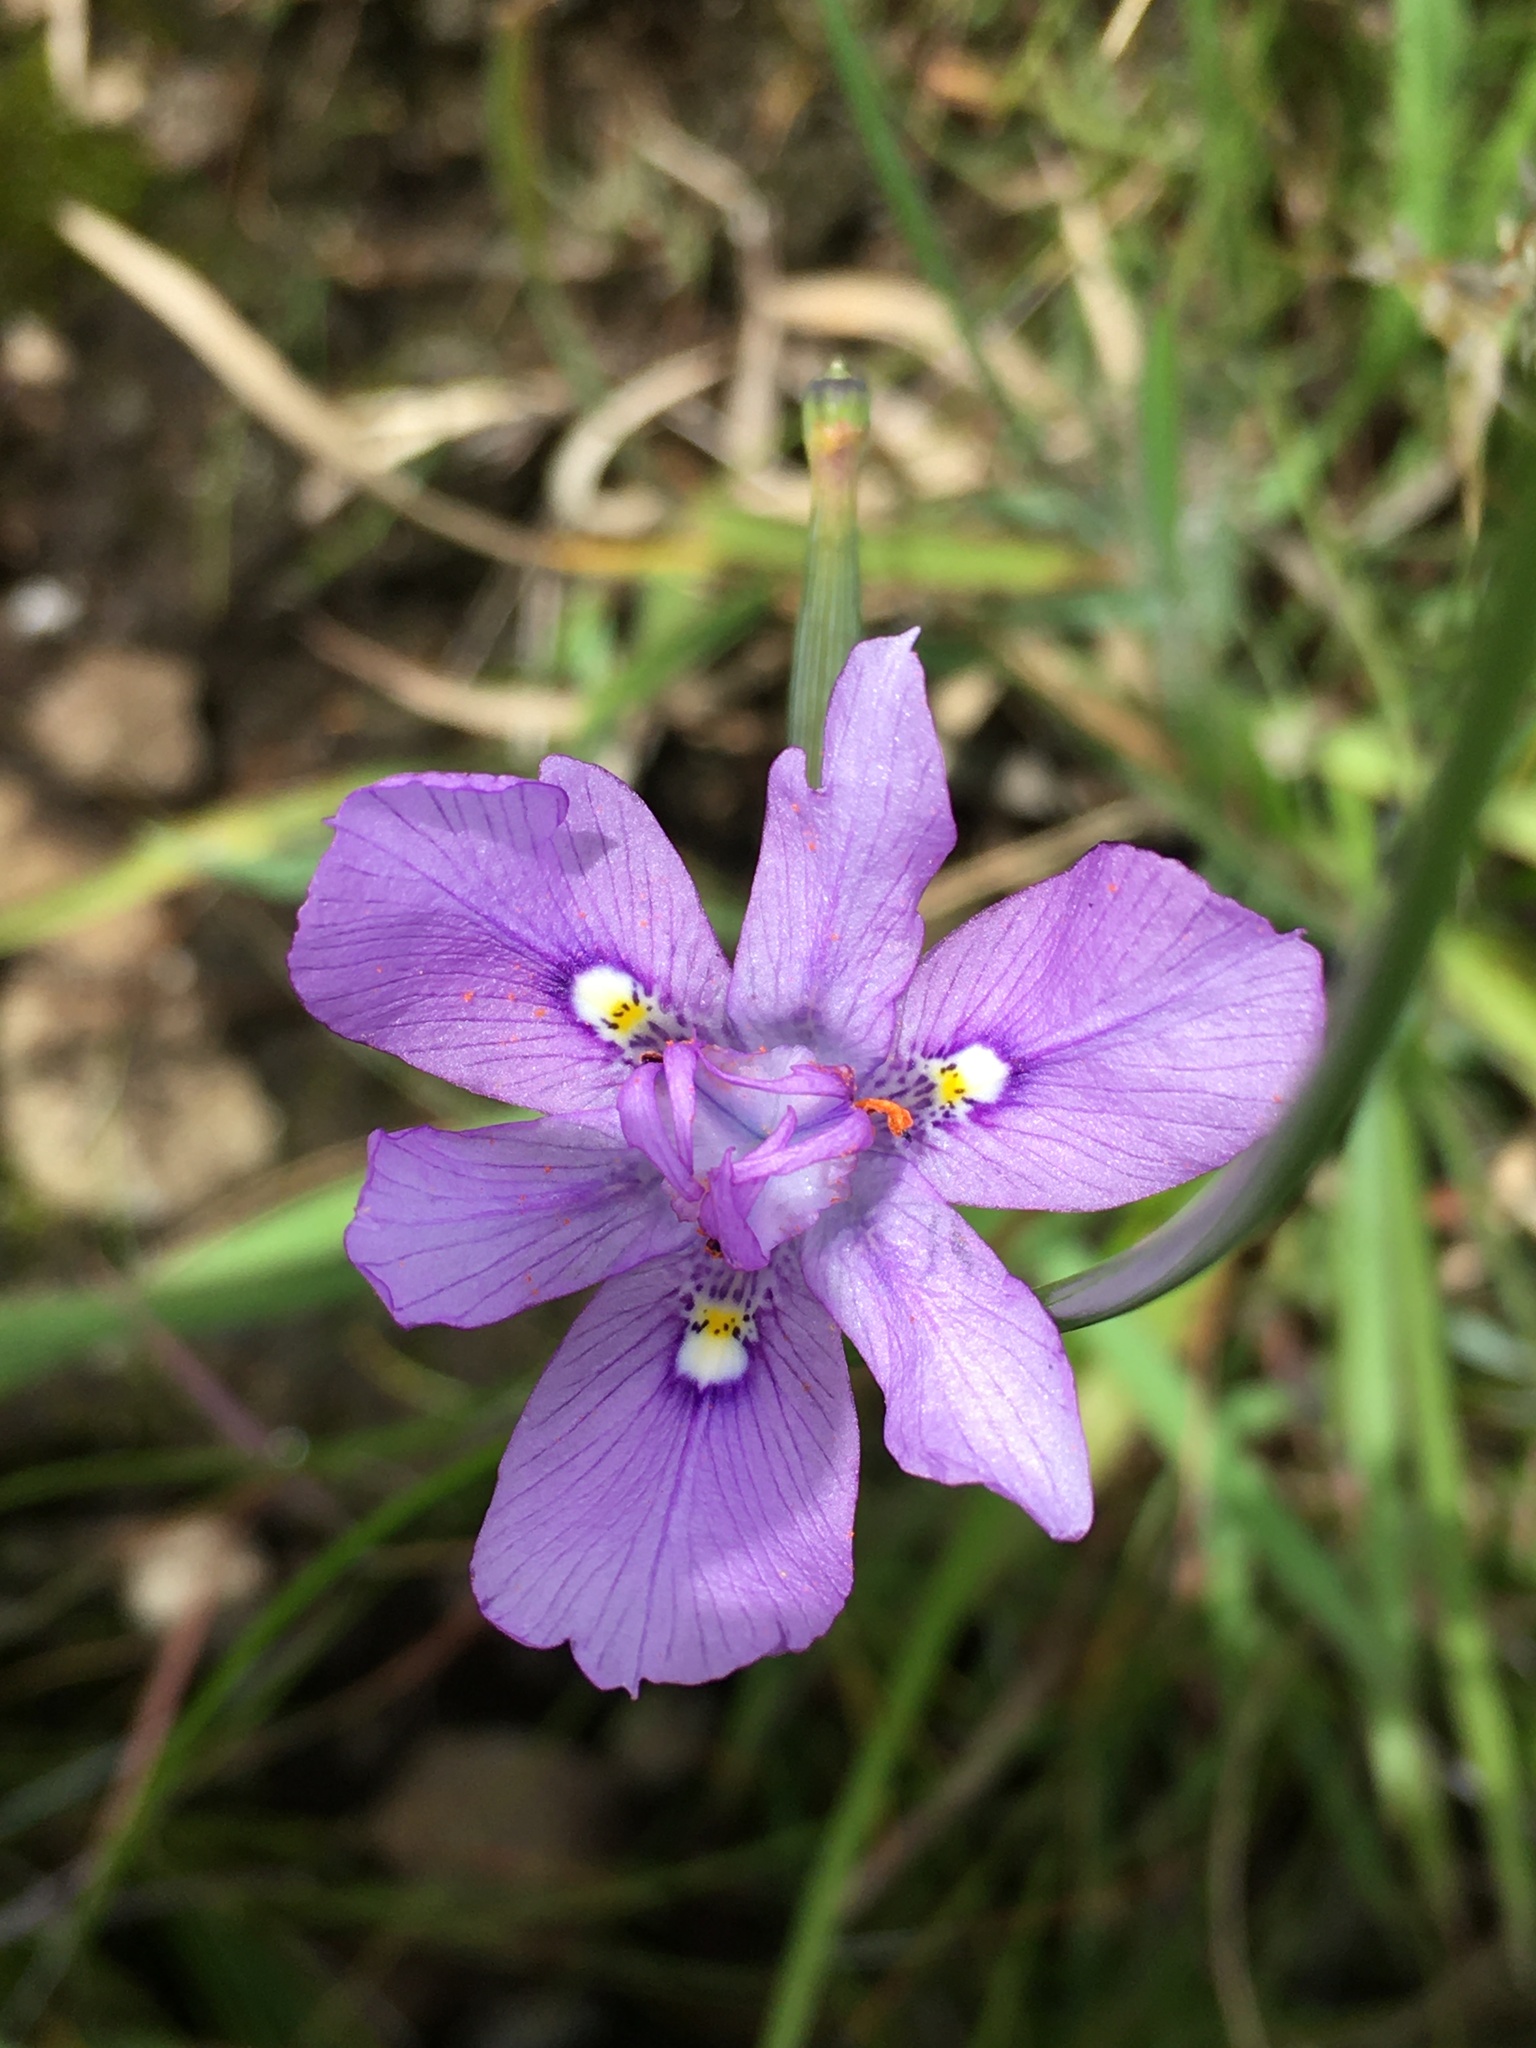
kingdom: Plantae
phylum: Tracheophyta
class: Liliopsida
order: Asparagales
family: Iridaceae
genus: Moraea
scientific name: Moraea inclinata
